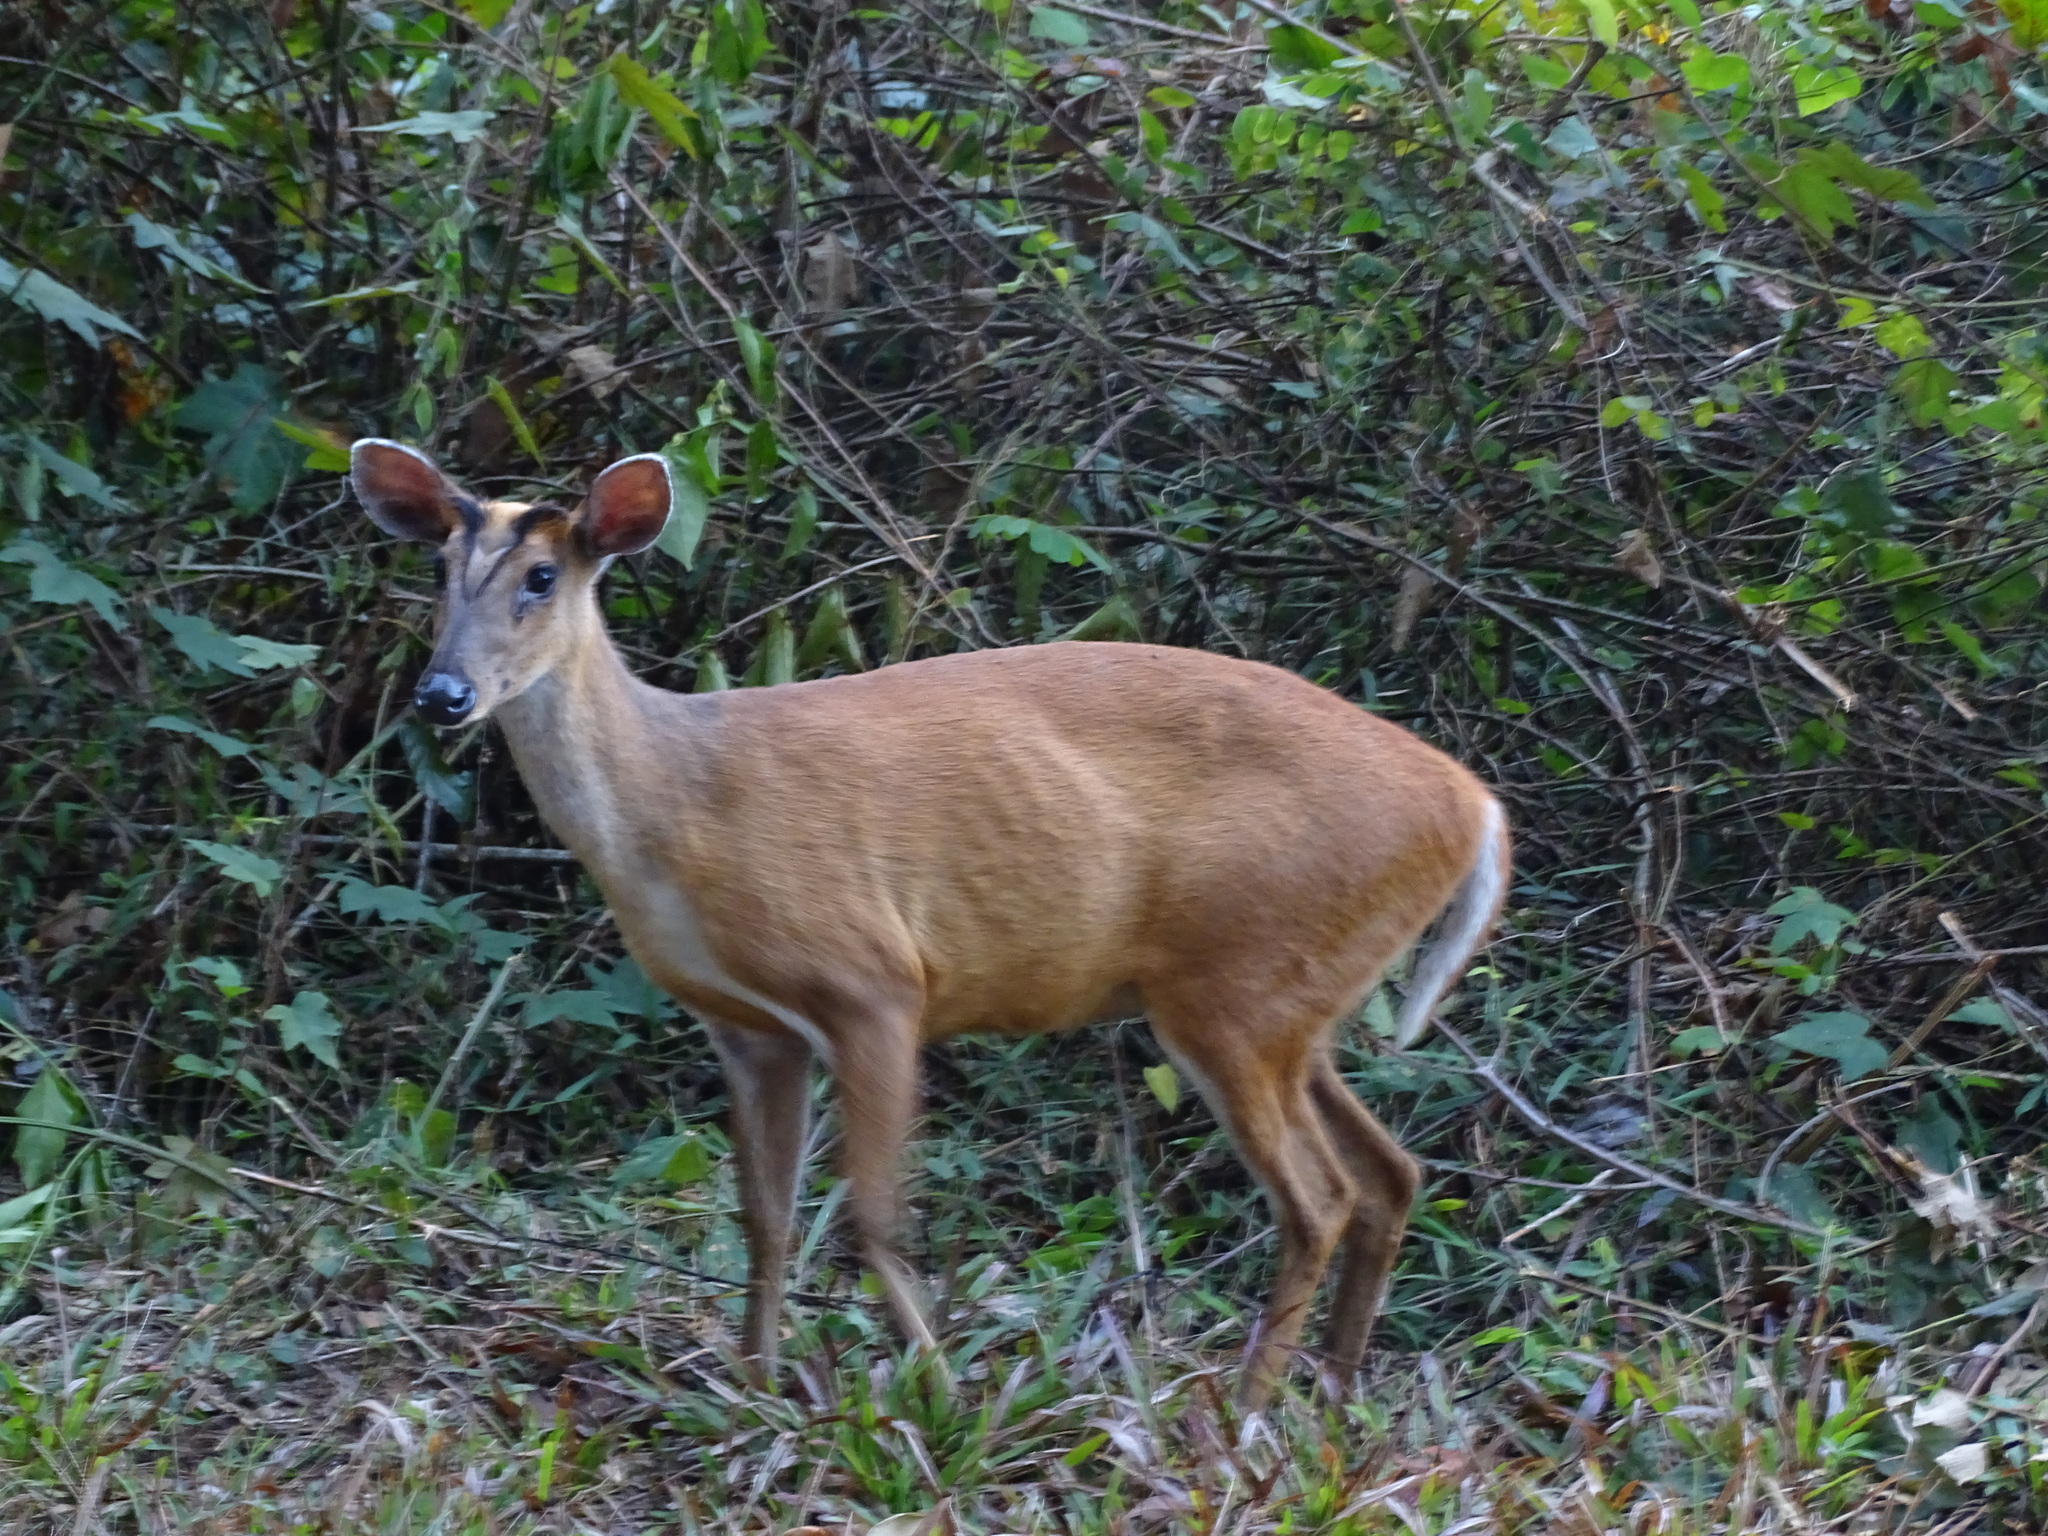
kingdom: Animalia
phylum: Chordata
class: Mammalia
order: Artiodactyla
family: Cervidae
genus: Muntiacus
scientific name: Muntiacus muntjak
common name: Indian muntjac
